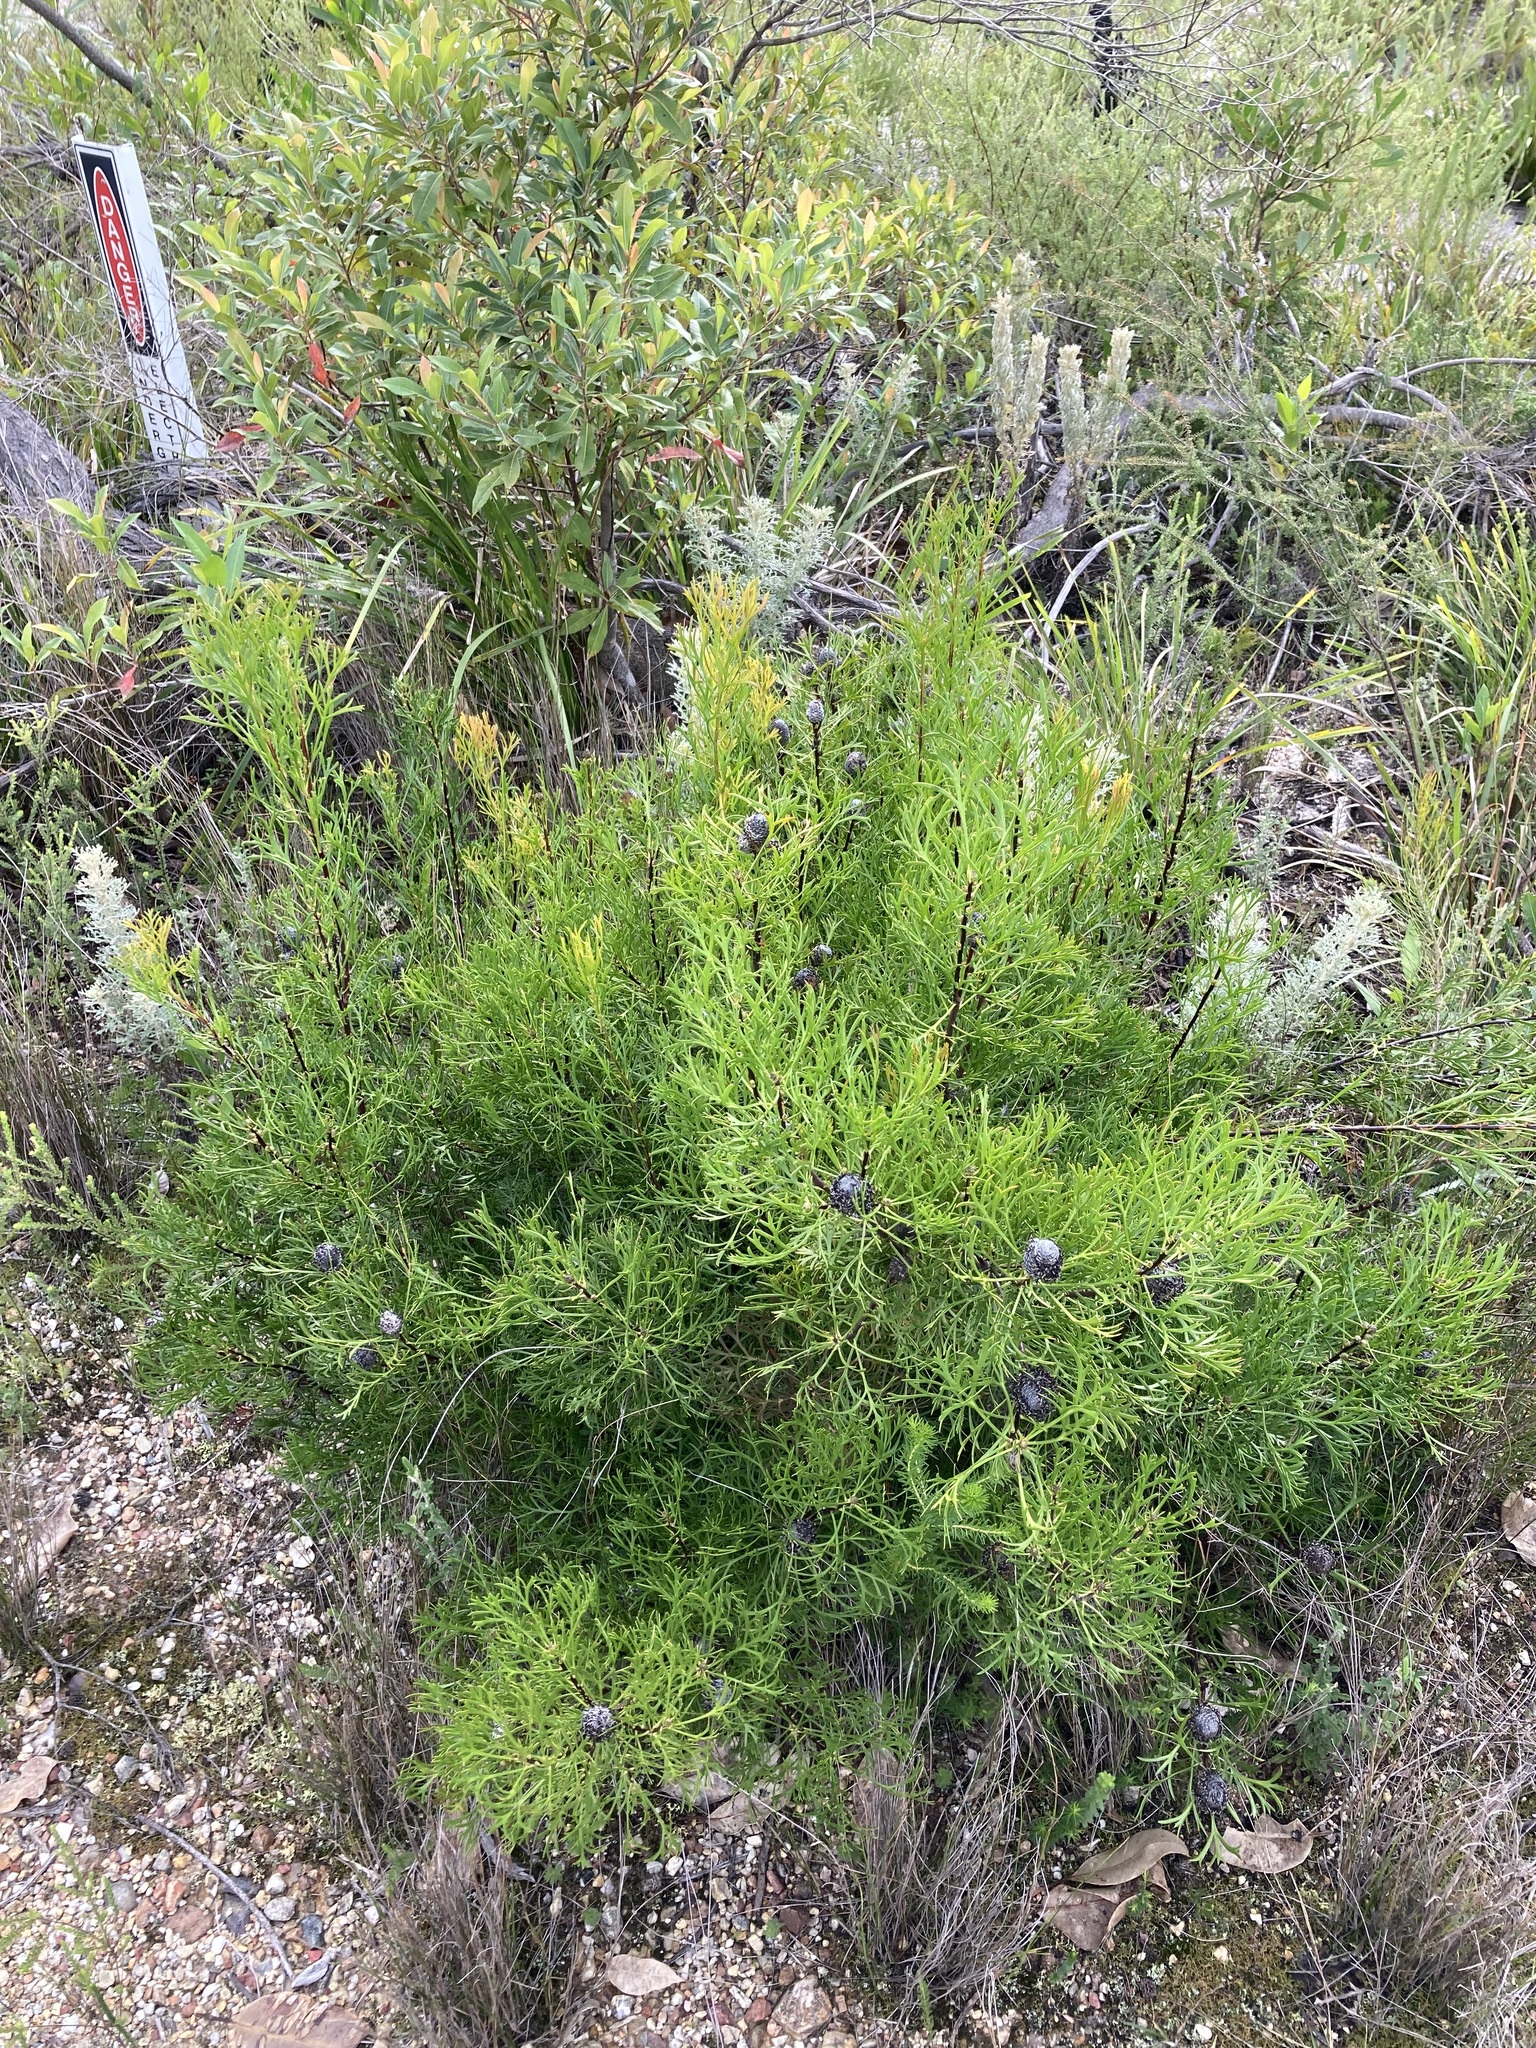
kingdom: Plantae
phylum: Tracheophyta
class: Magnoliopsida
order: Proteales
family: Proteaceae
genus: Isopogon
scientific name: Isopogon anemonifolius
